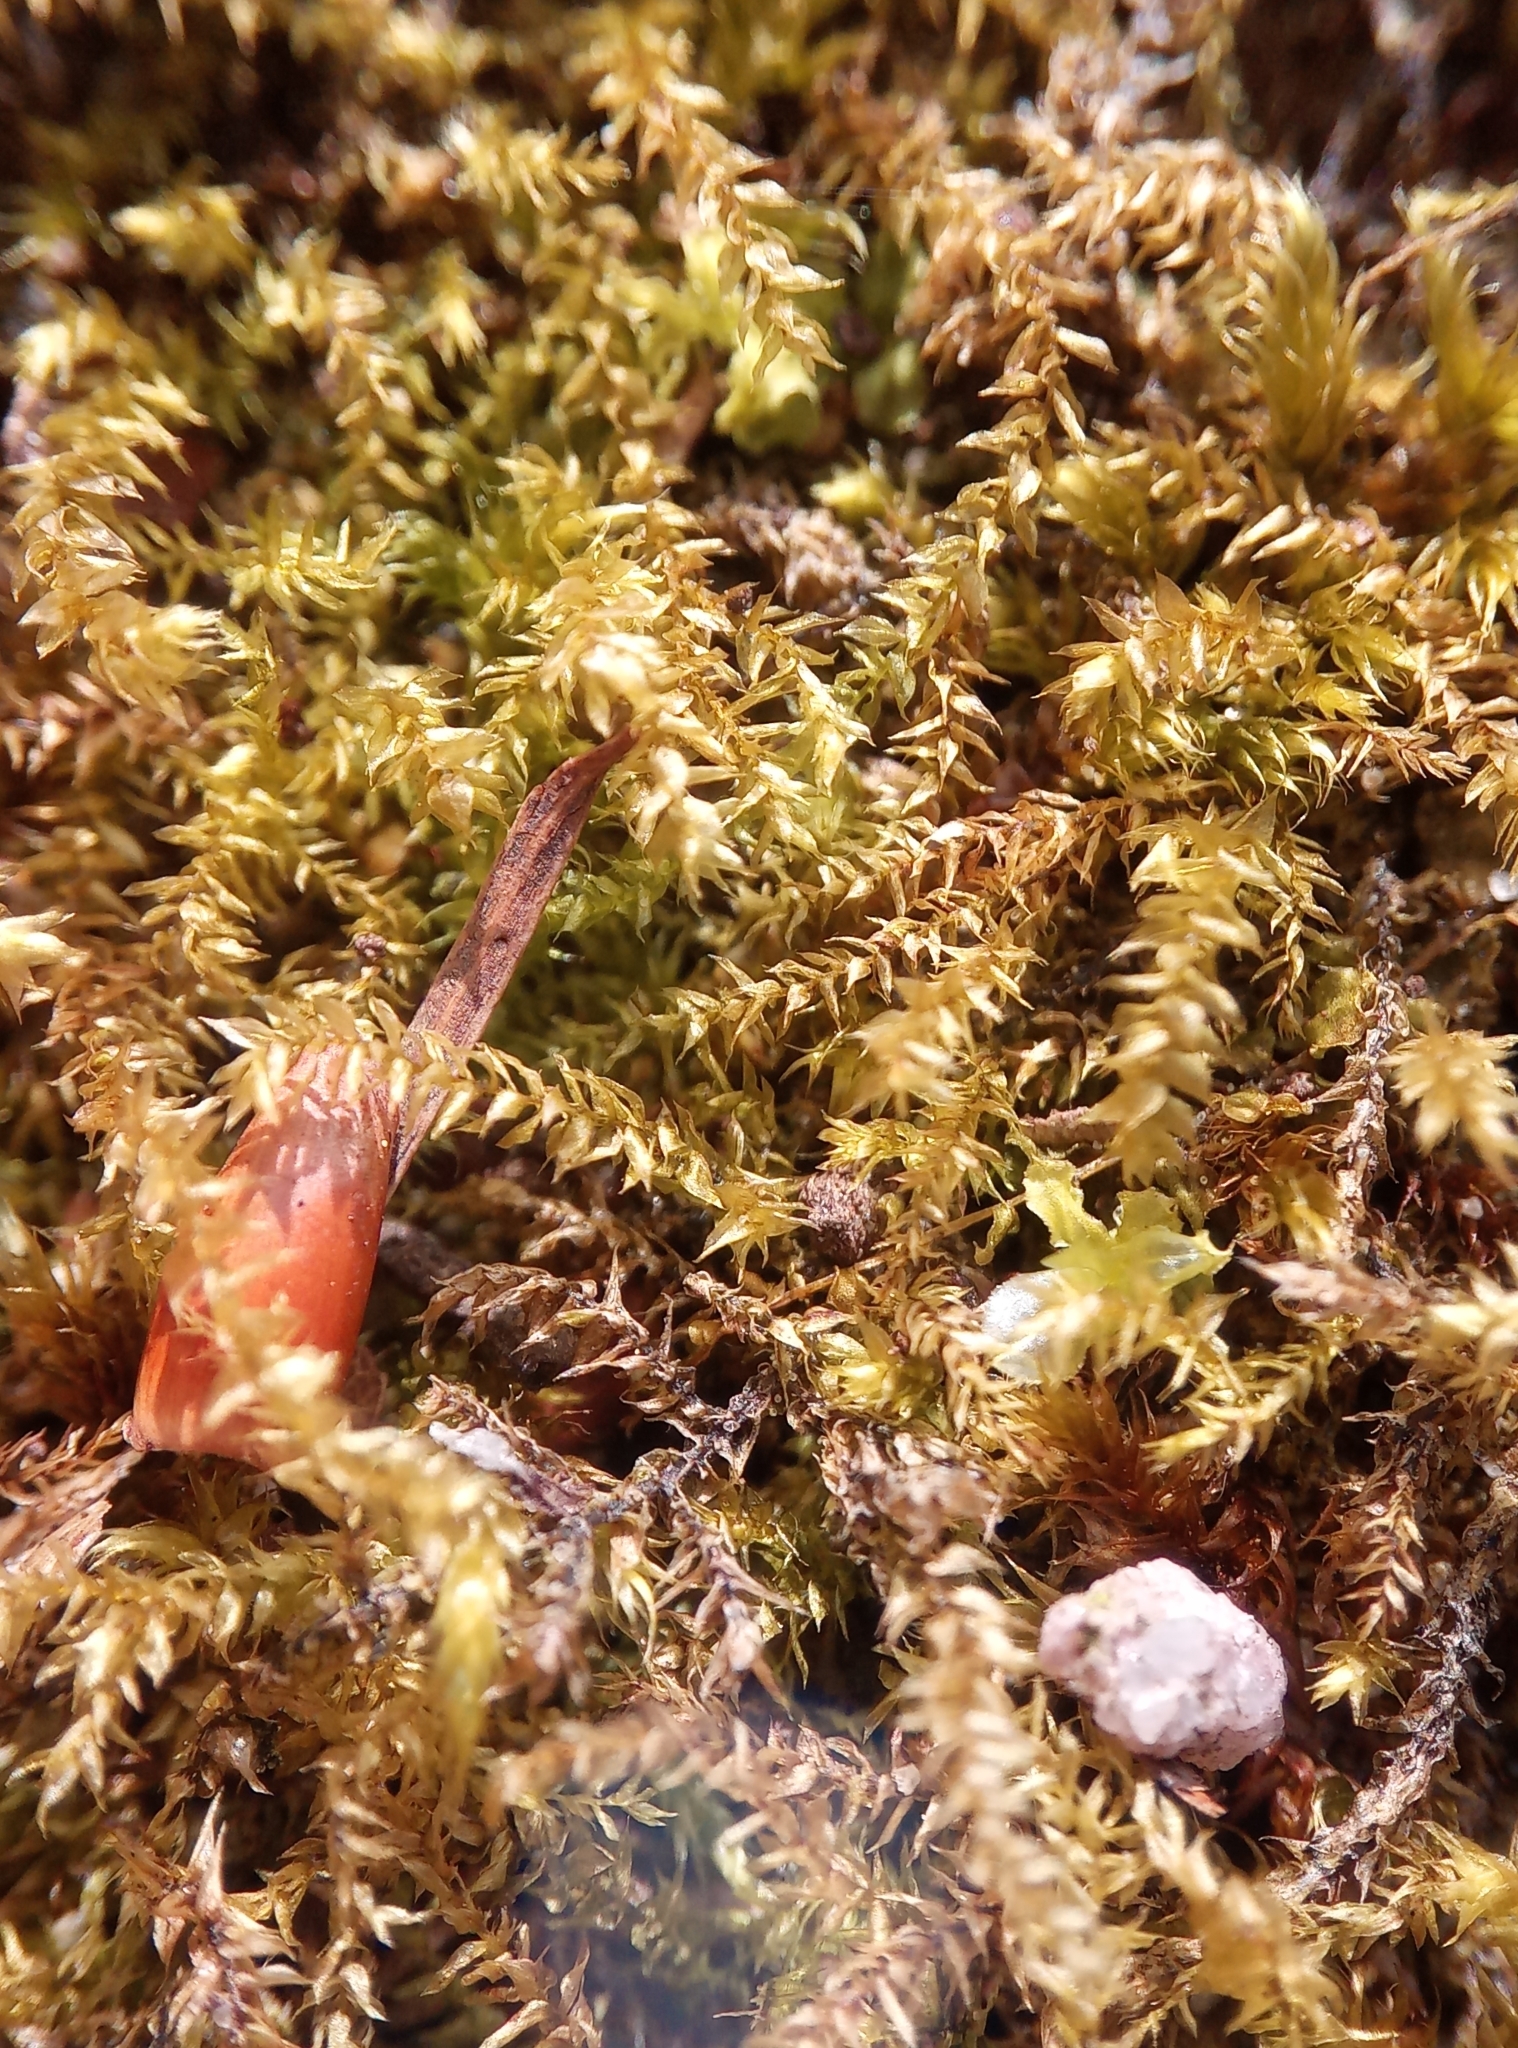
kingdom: Plantae
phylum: Bryophyta
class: Bryopsida
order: Hypnales
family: Brachytheciaceae
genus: Oxyrrhynchium
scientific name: Oxyrrhynchium hians
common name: Spreading beaked moss
